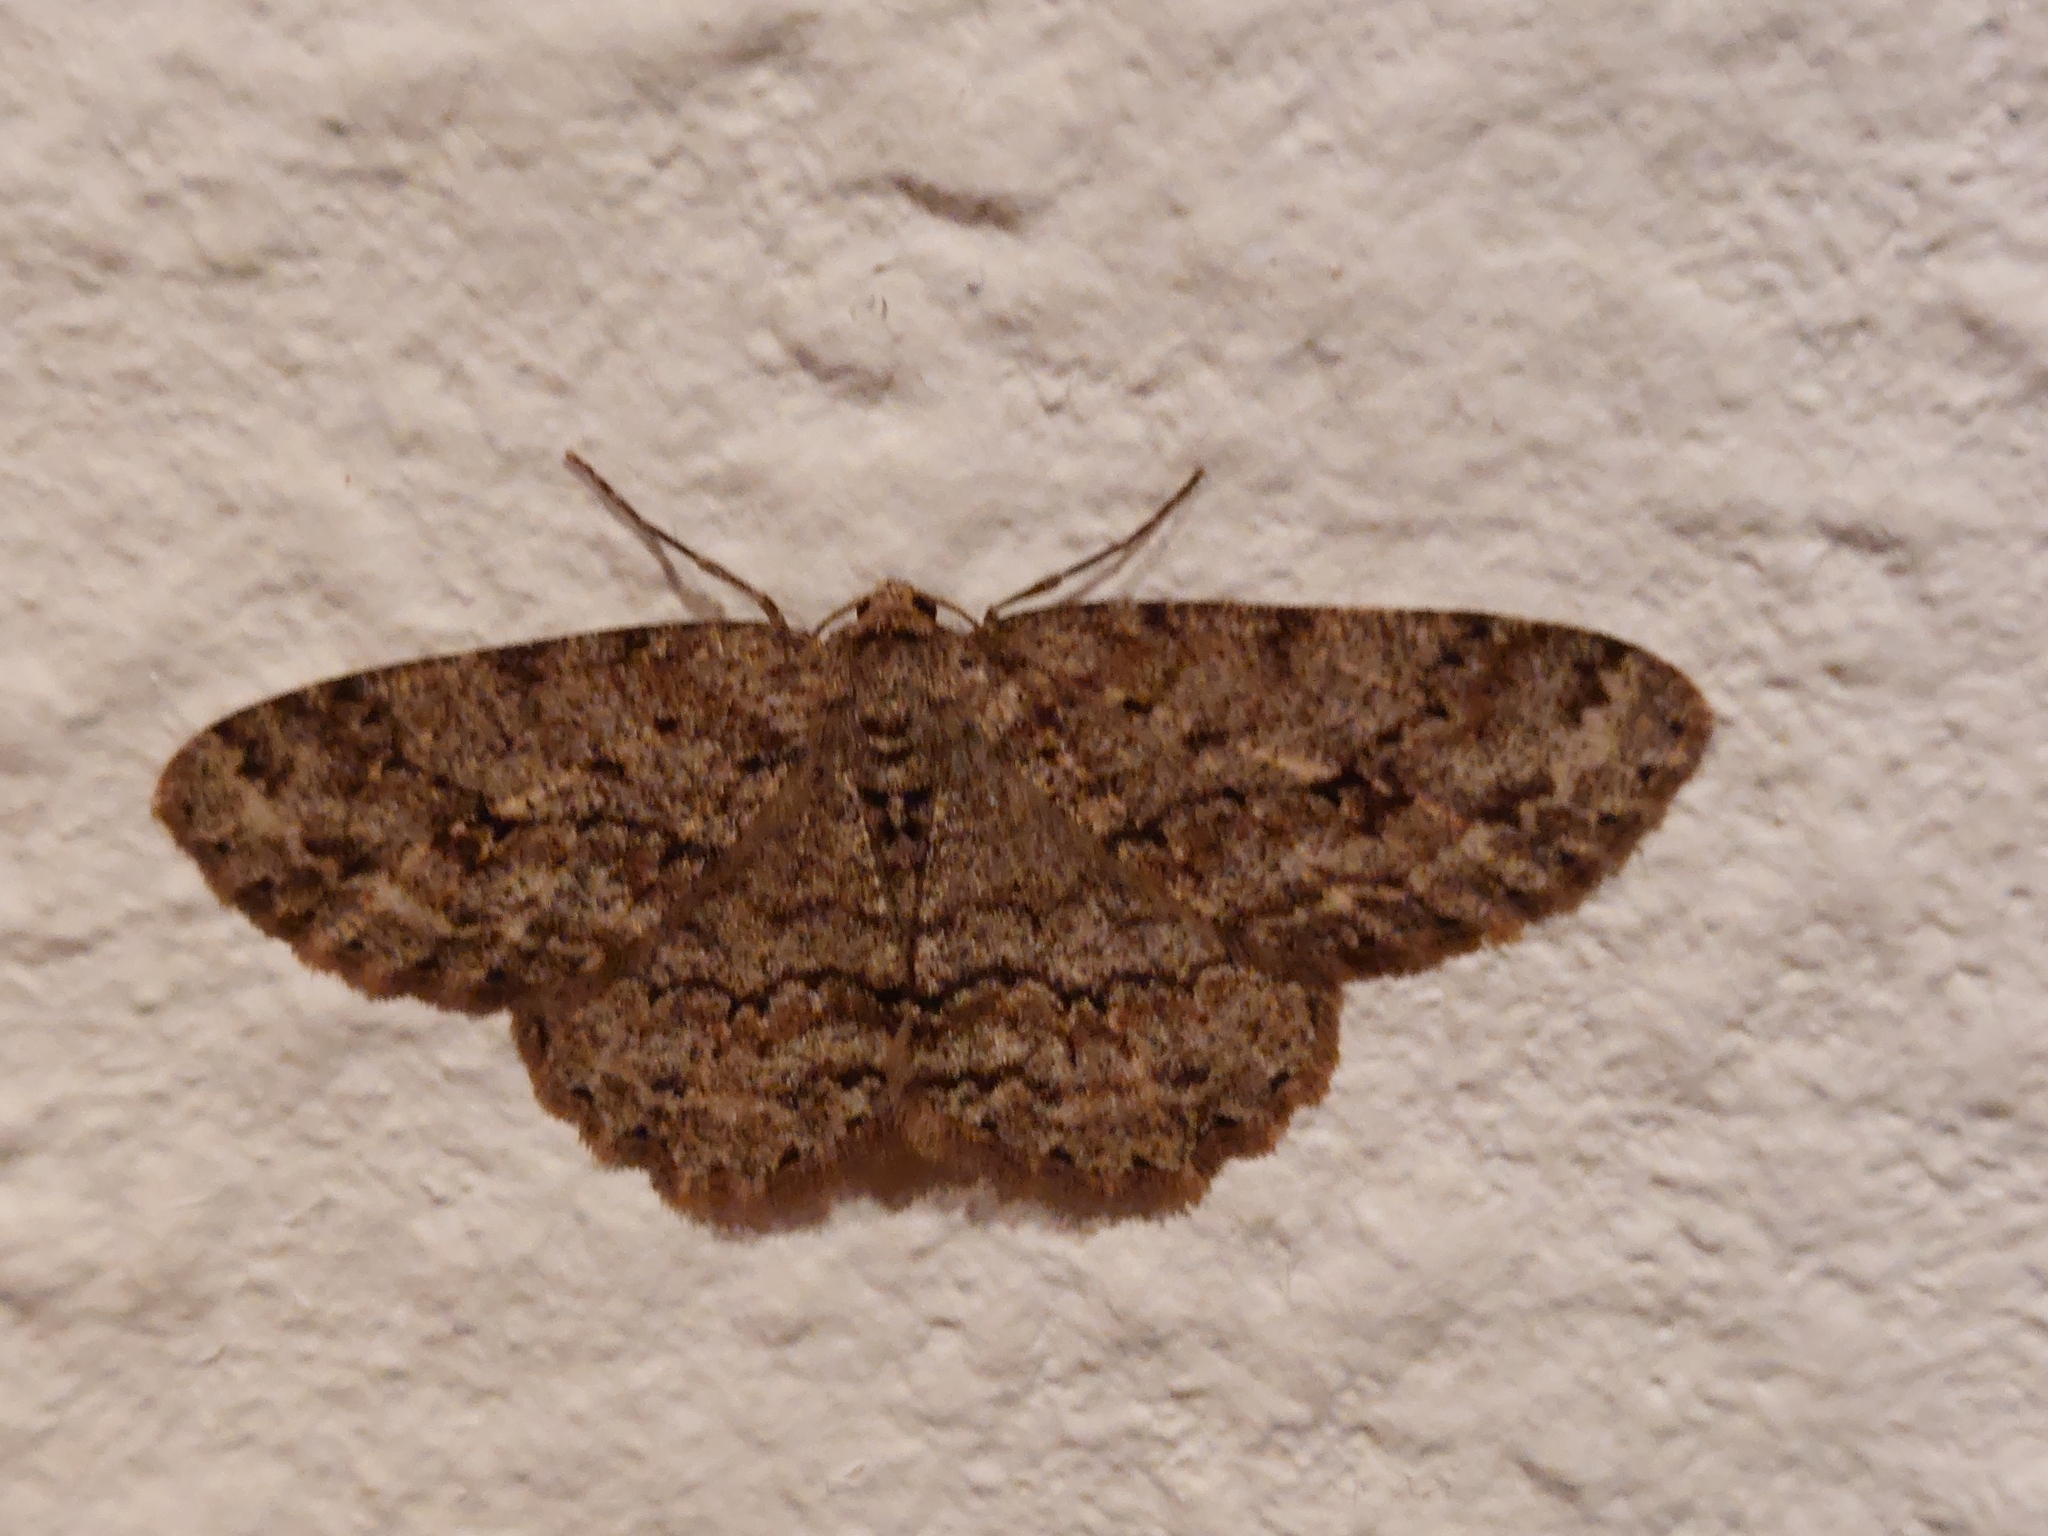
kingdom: Animalia
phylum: Arthropoda
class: Insecta
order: Lepidoptera
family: Geometridae
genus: Ectropis
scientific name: Ectropis crepuscularia
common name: Engrailed
